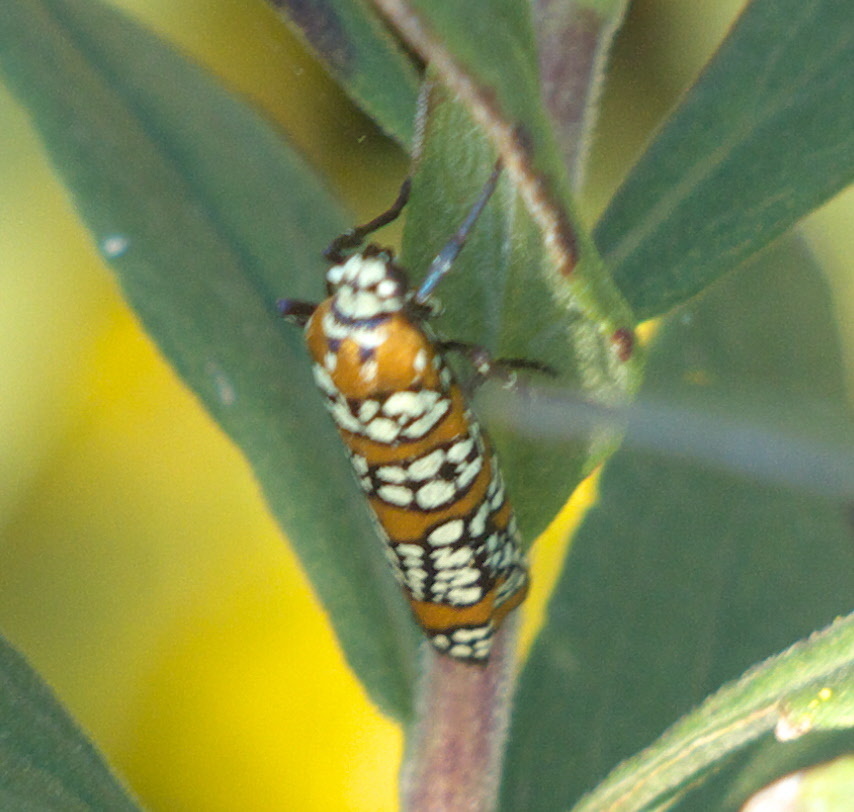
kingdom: Animalia
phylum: Arthropoda
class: Insecta
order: Lepidoptera
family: Attevidae
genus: Atteva
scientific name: Atteva punctella
